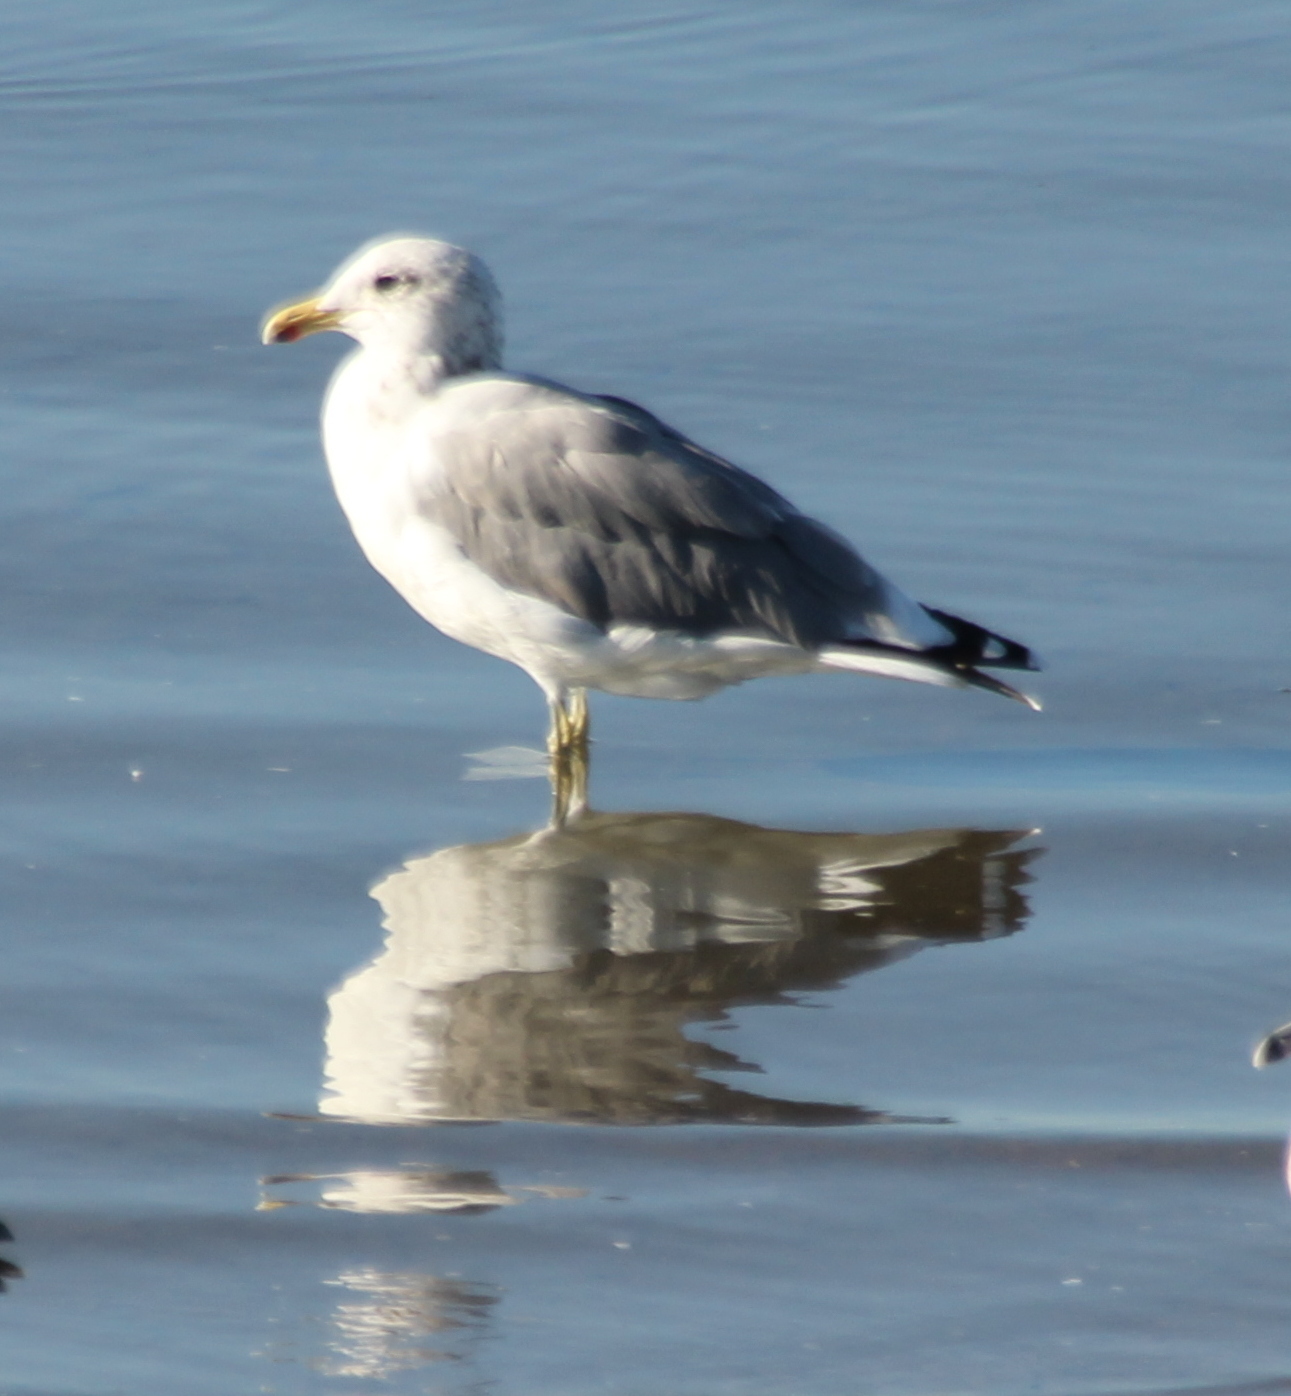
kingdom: Animalia
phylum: Chordata
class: Aves
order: Charadriiformes
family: Laridae
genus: Larus
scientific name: Larus californicus
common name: California gull
